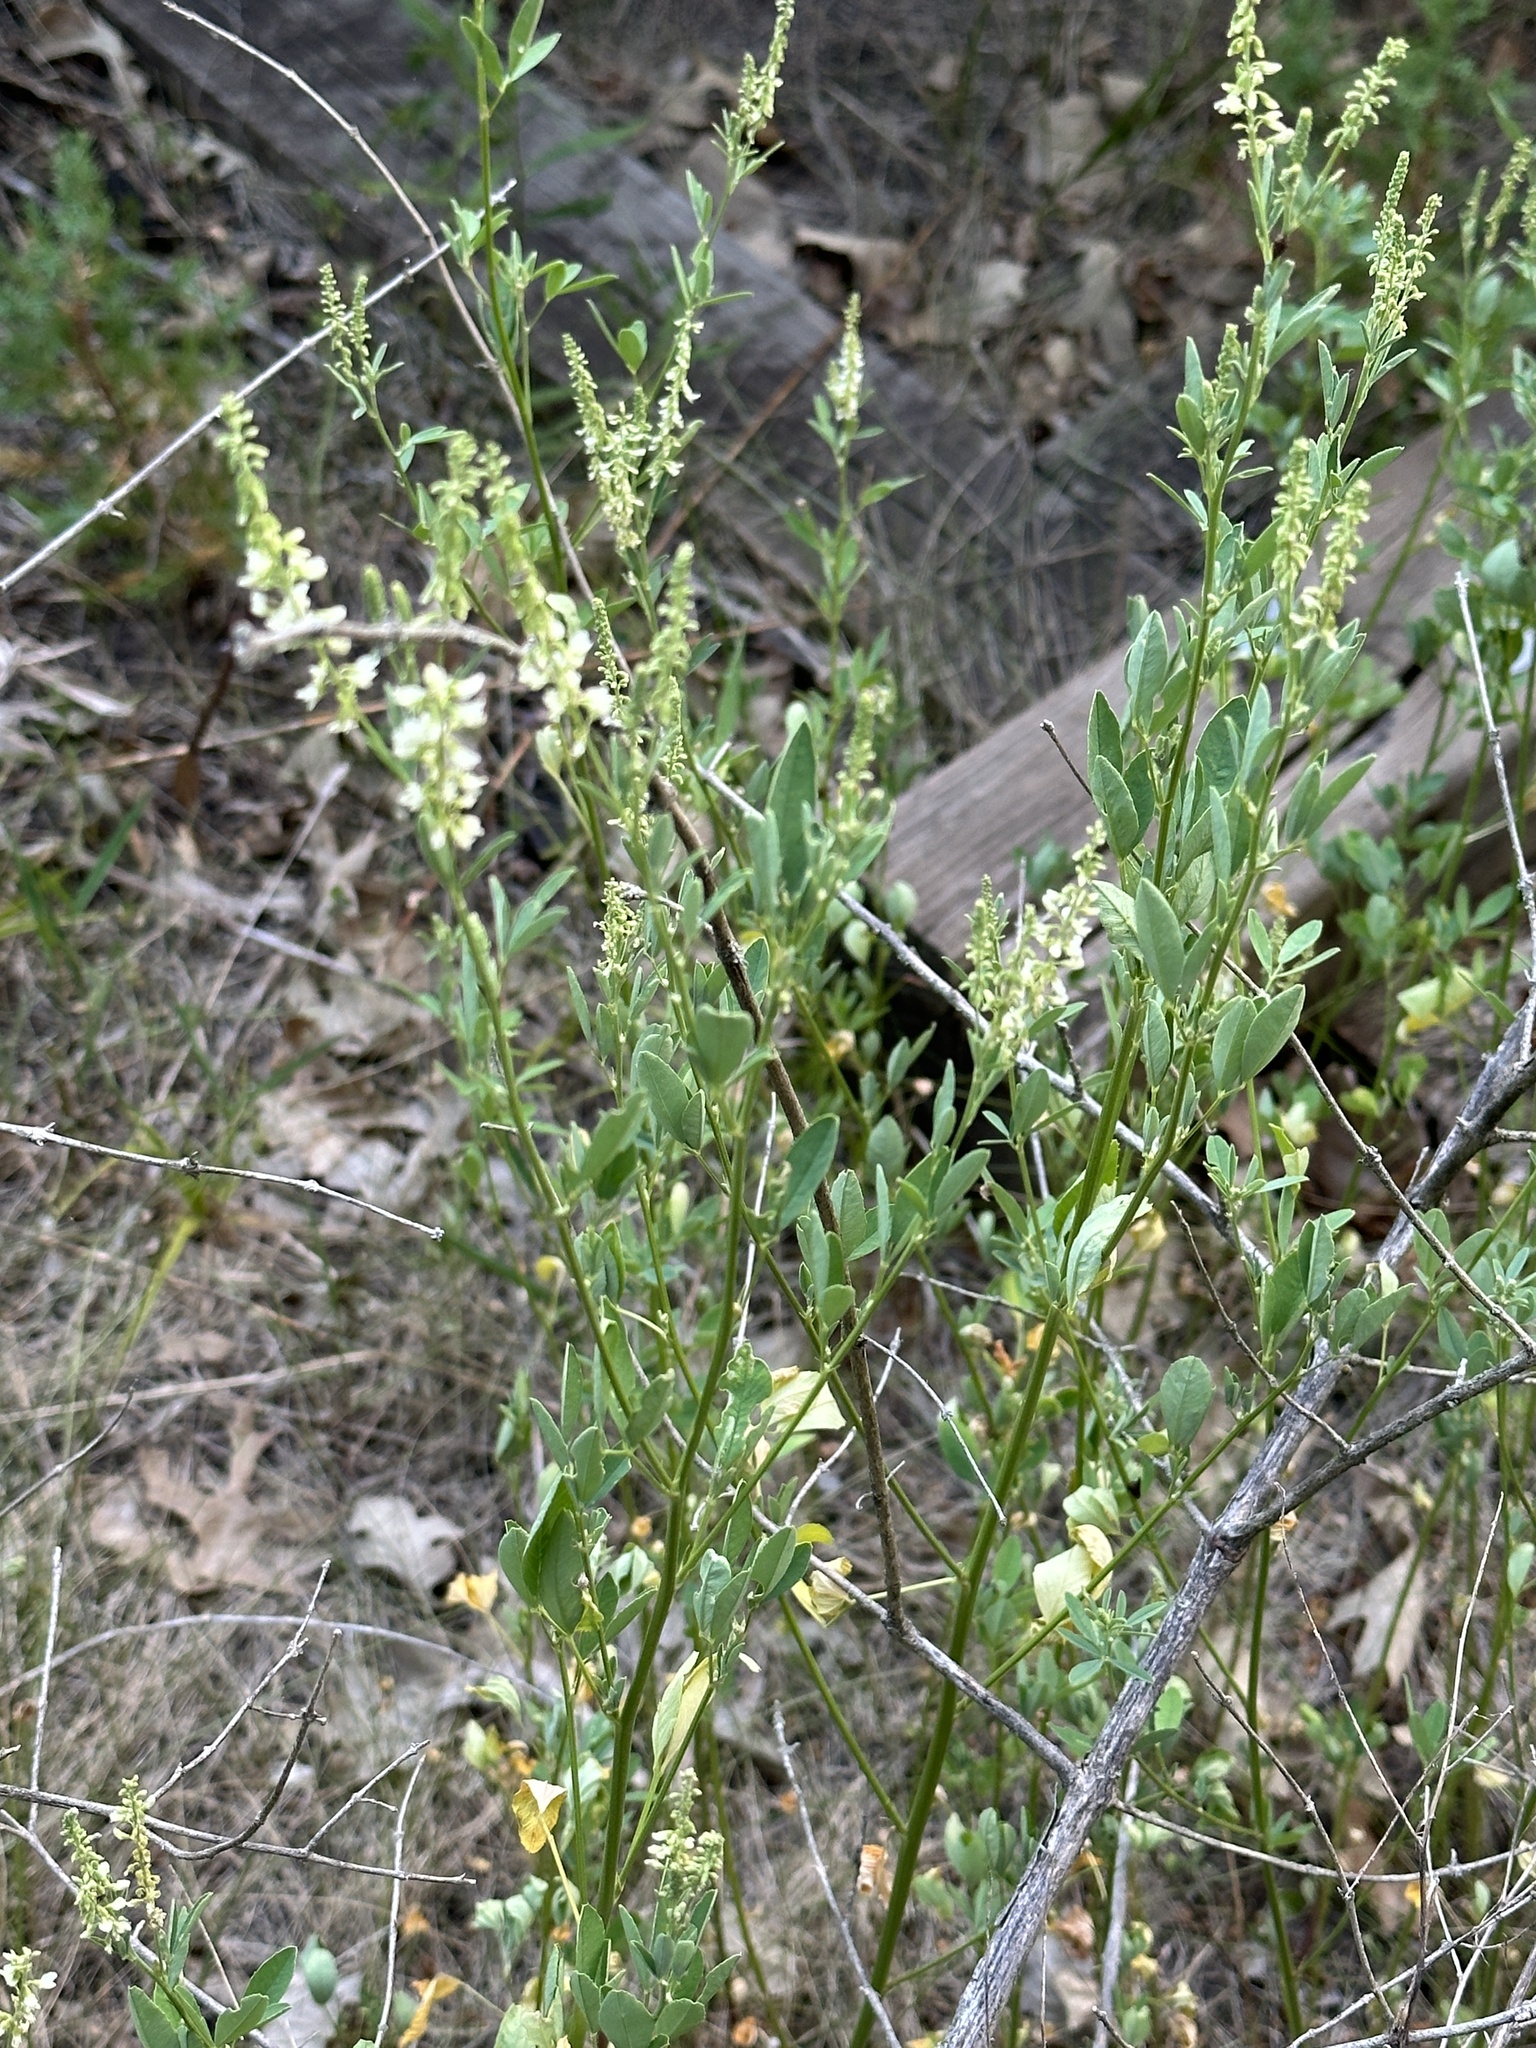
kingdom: Plantae
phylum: Tracheophyta
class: Magnoliopsida
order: Fabales
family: Fabaceae
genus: Melilotus
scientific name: Melilotus albus
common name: White melilot
